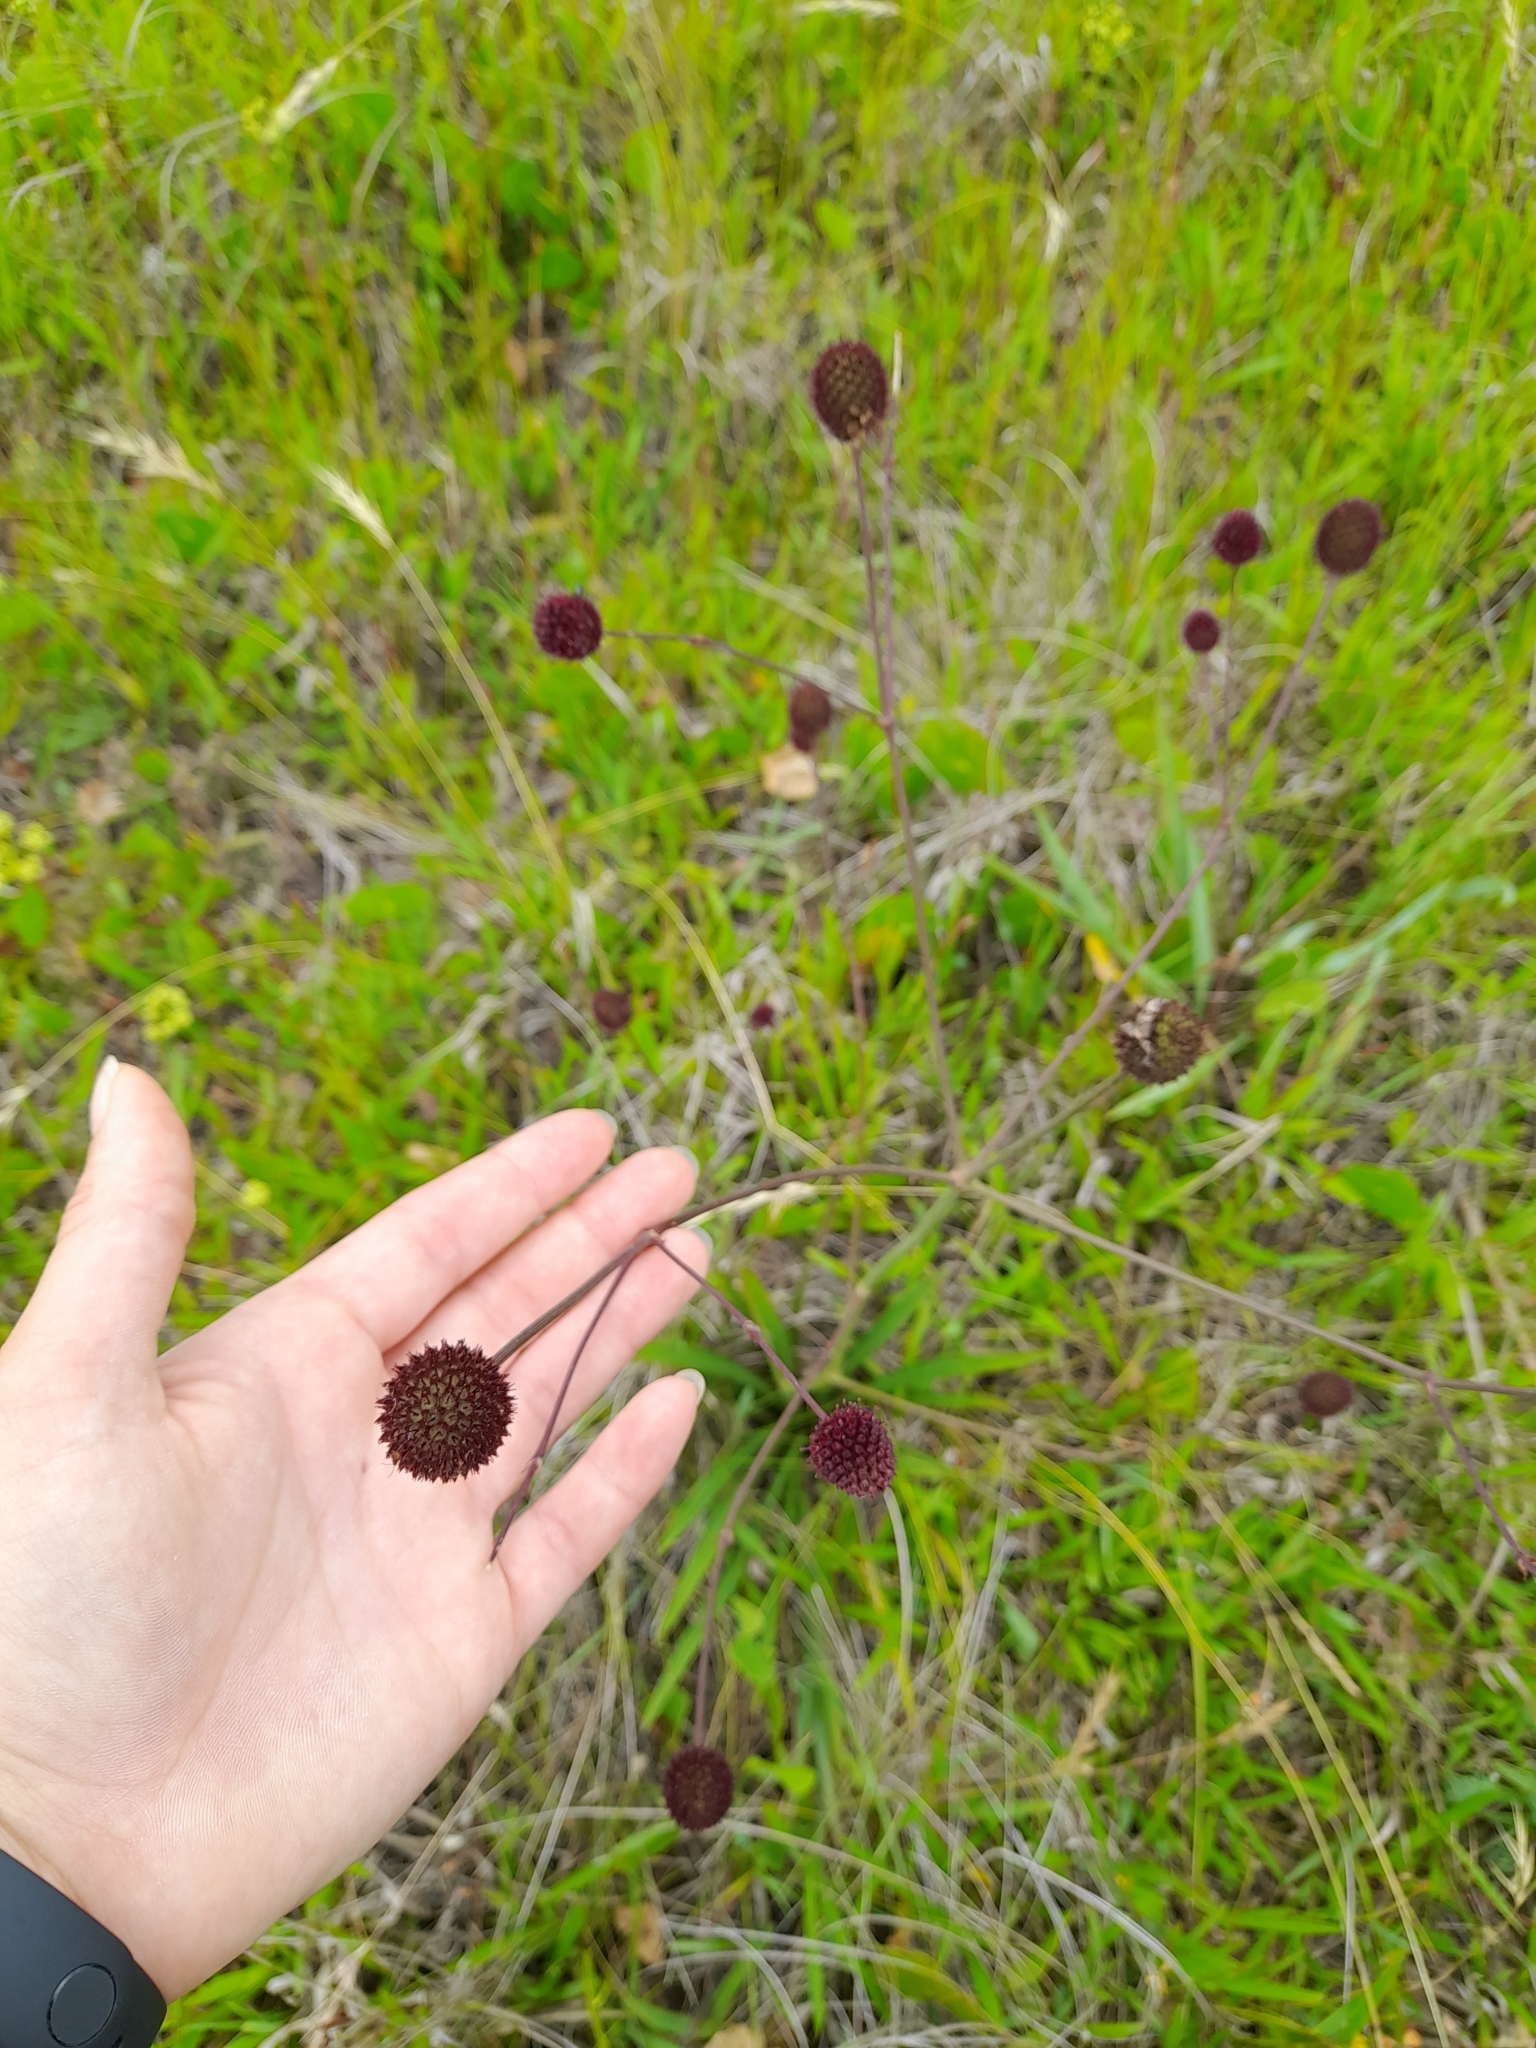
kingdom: Plantae
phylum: Tracheophyta
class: Magnoliopsida
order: Apiales
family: Apiaceae
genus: Eryngium
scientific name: Eryngium sanguisorba
